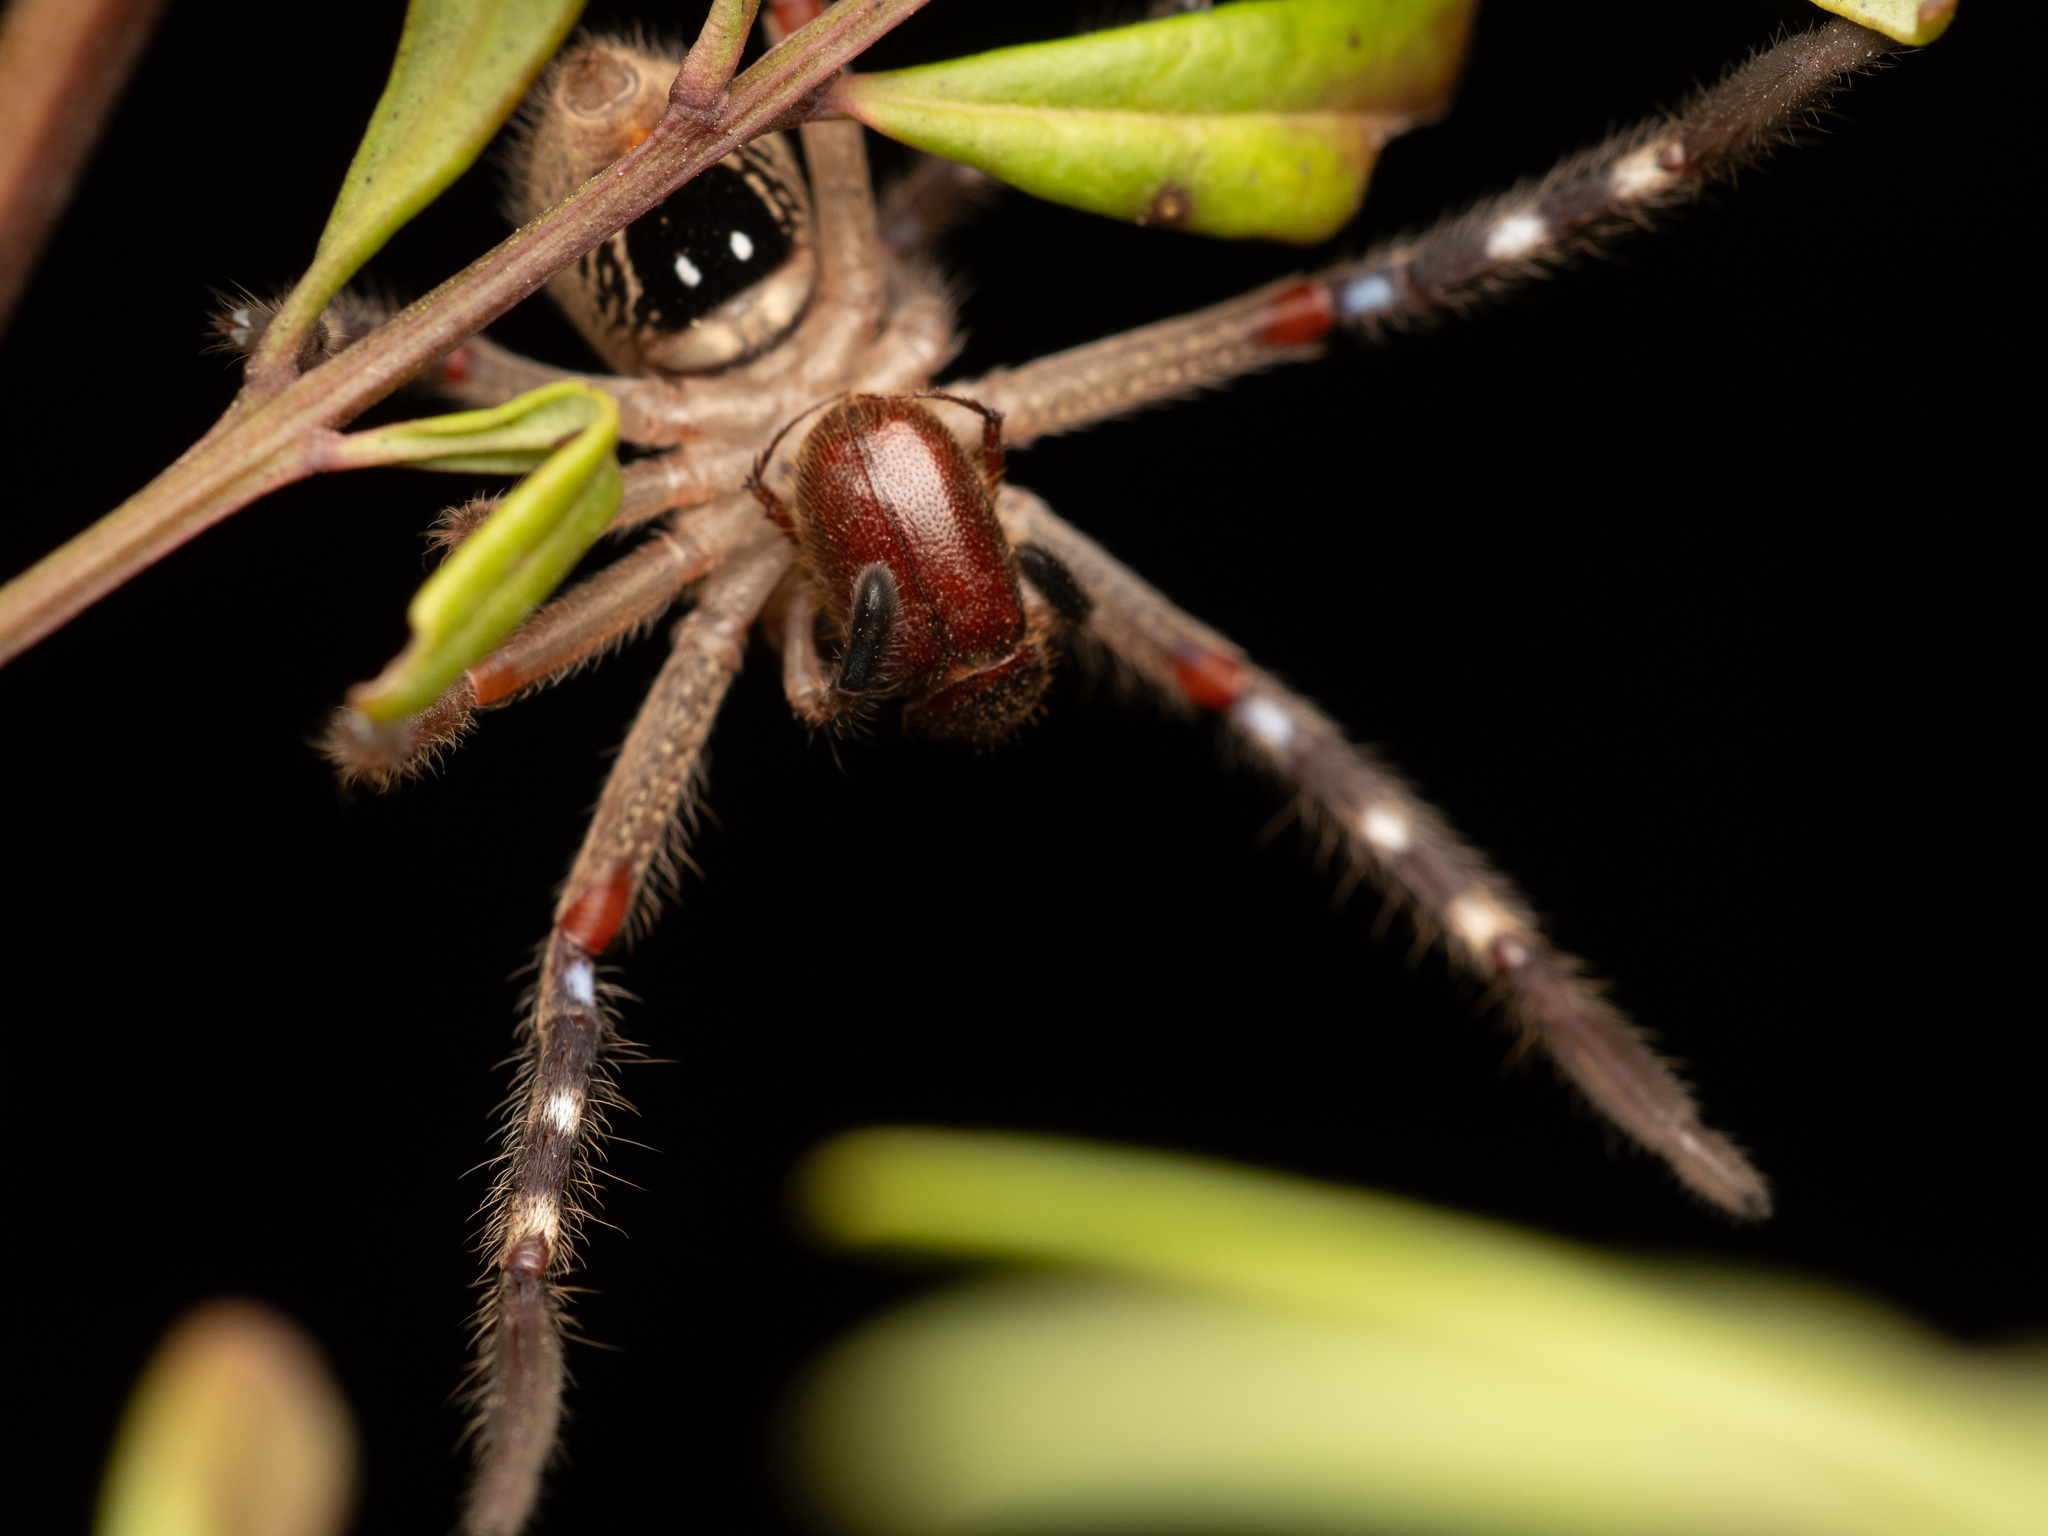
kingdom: Animalia
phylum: Arthropoda
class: Arachnida
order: Araneae
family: Sparassidae
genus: Neosparassus
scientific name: Neosparassus calligaster
